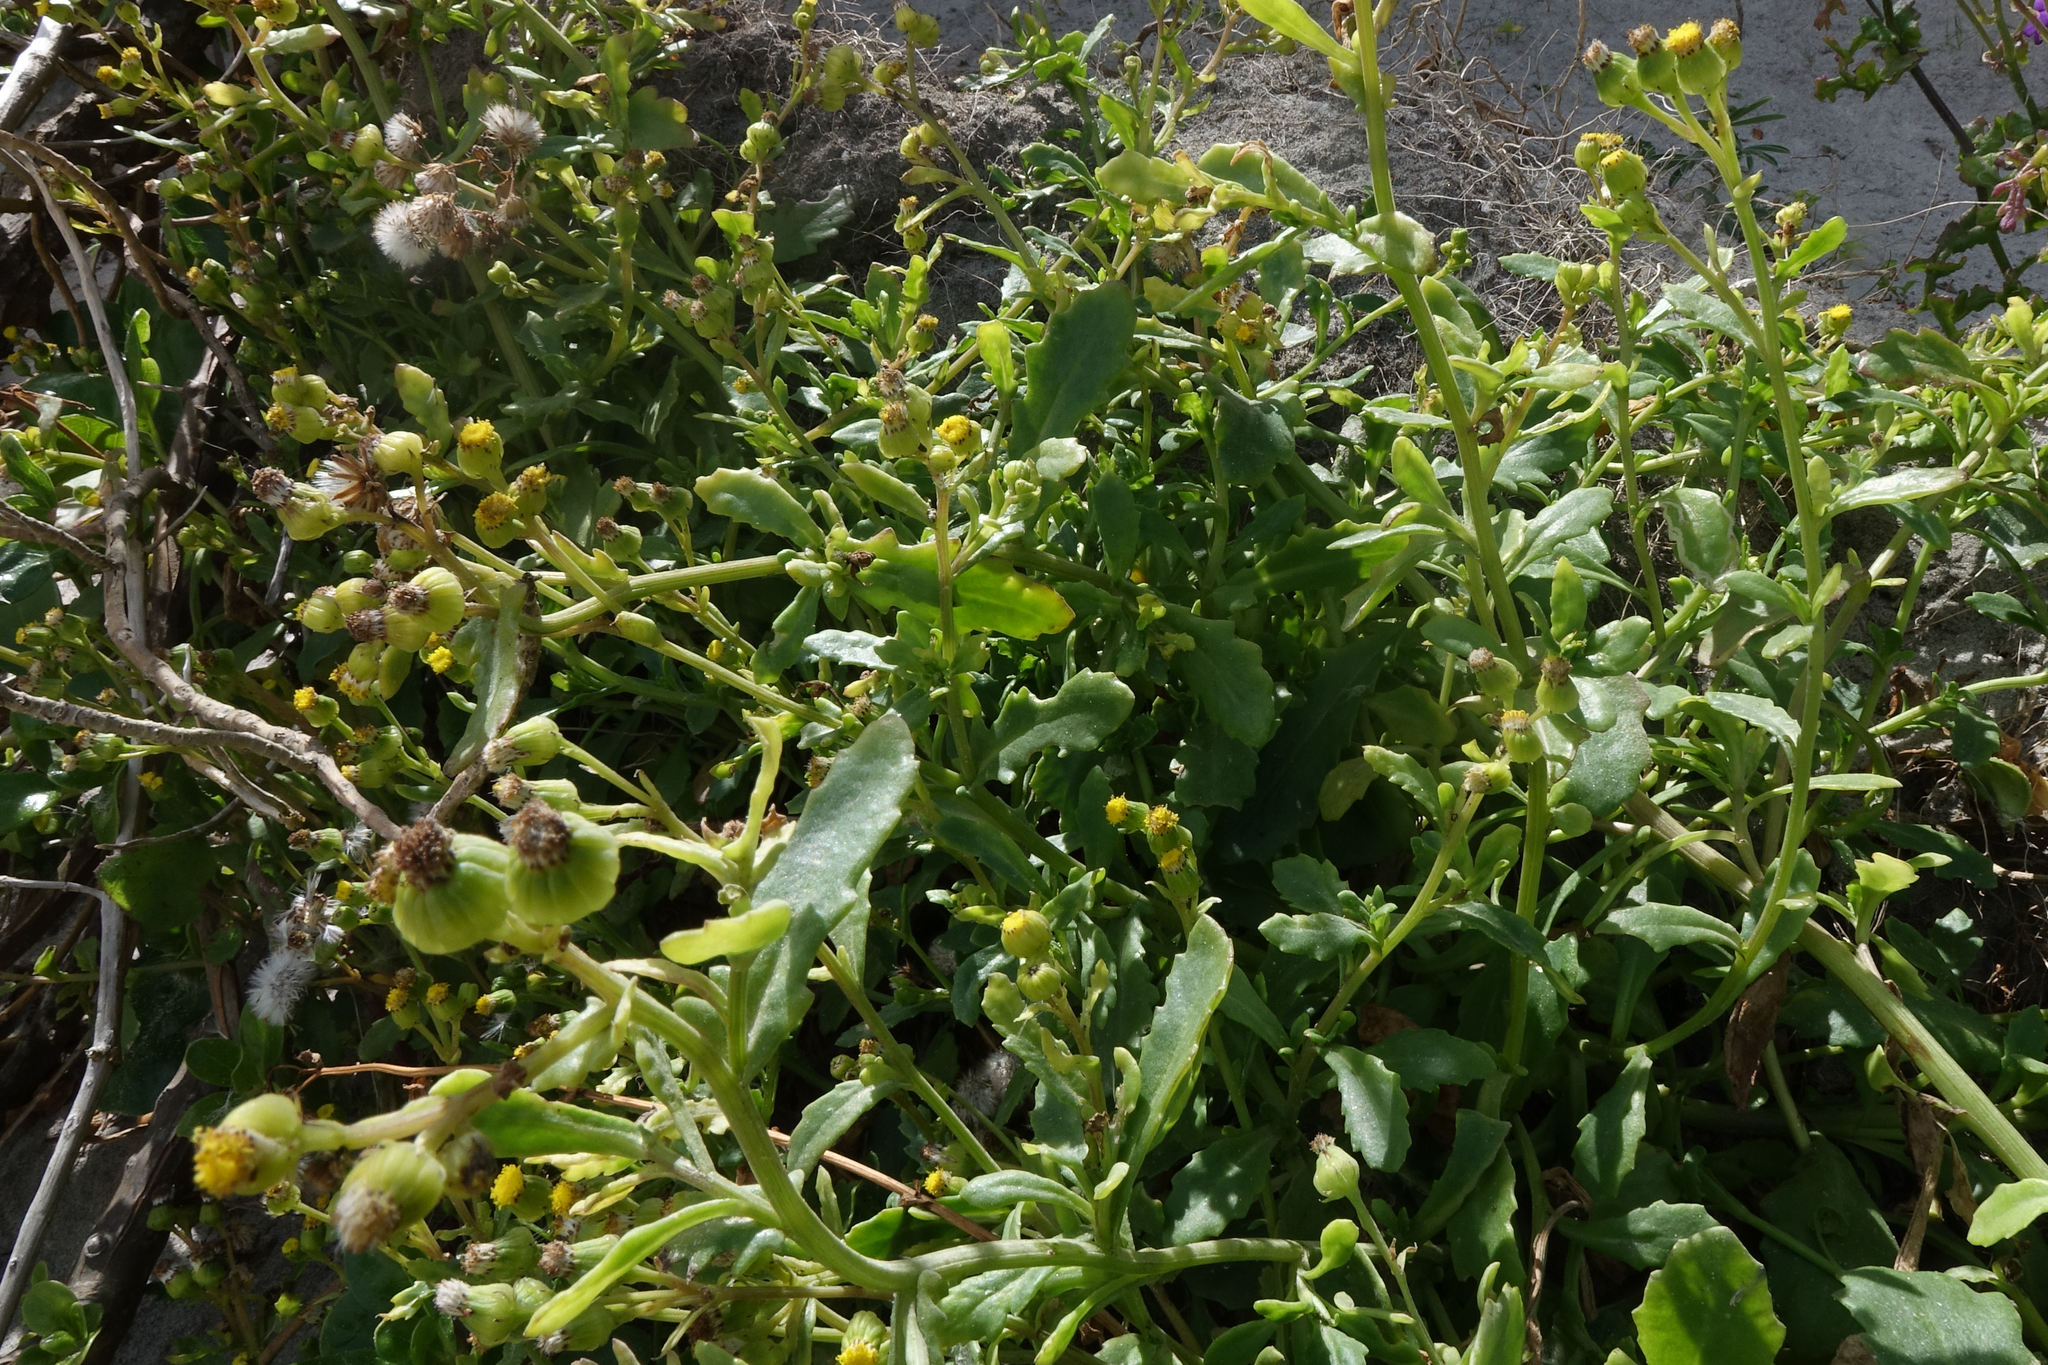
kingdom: Plantae
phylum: Tracheophyta
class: Magnoliopsida
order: Asterales
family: Asteraceae
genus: Senecio
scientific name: Senecio matatini
